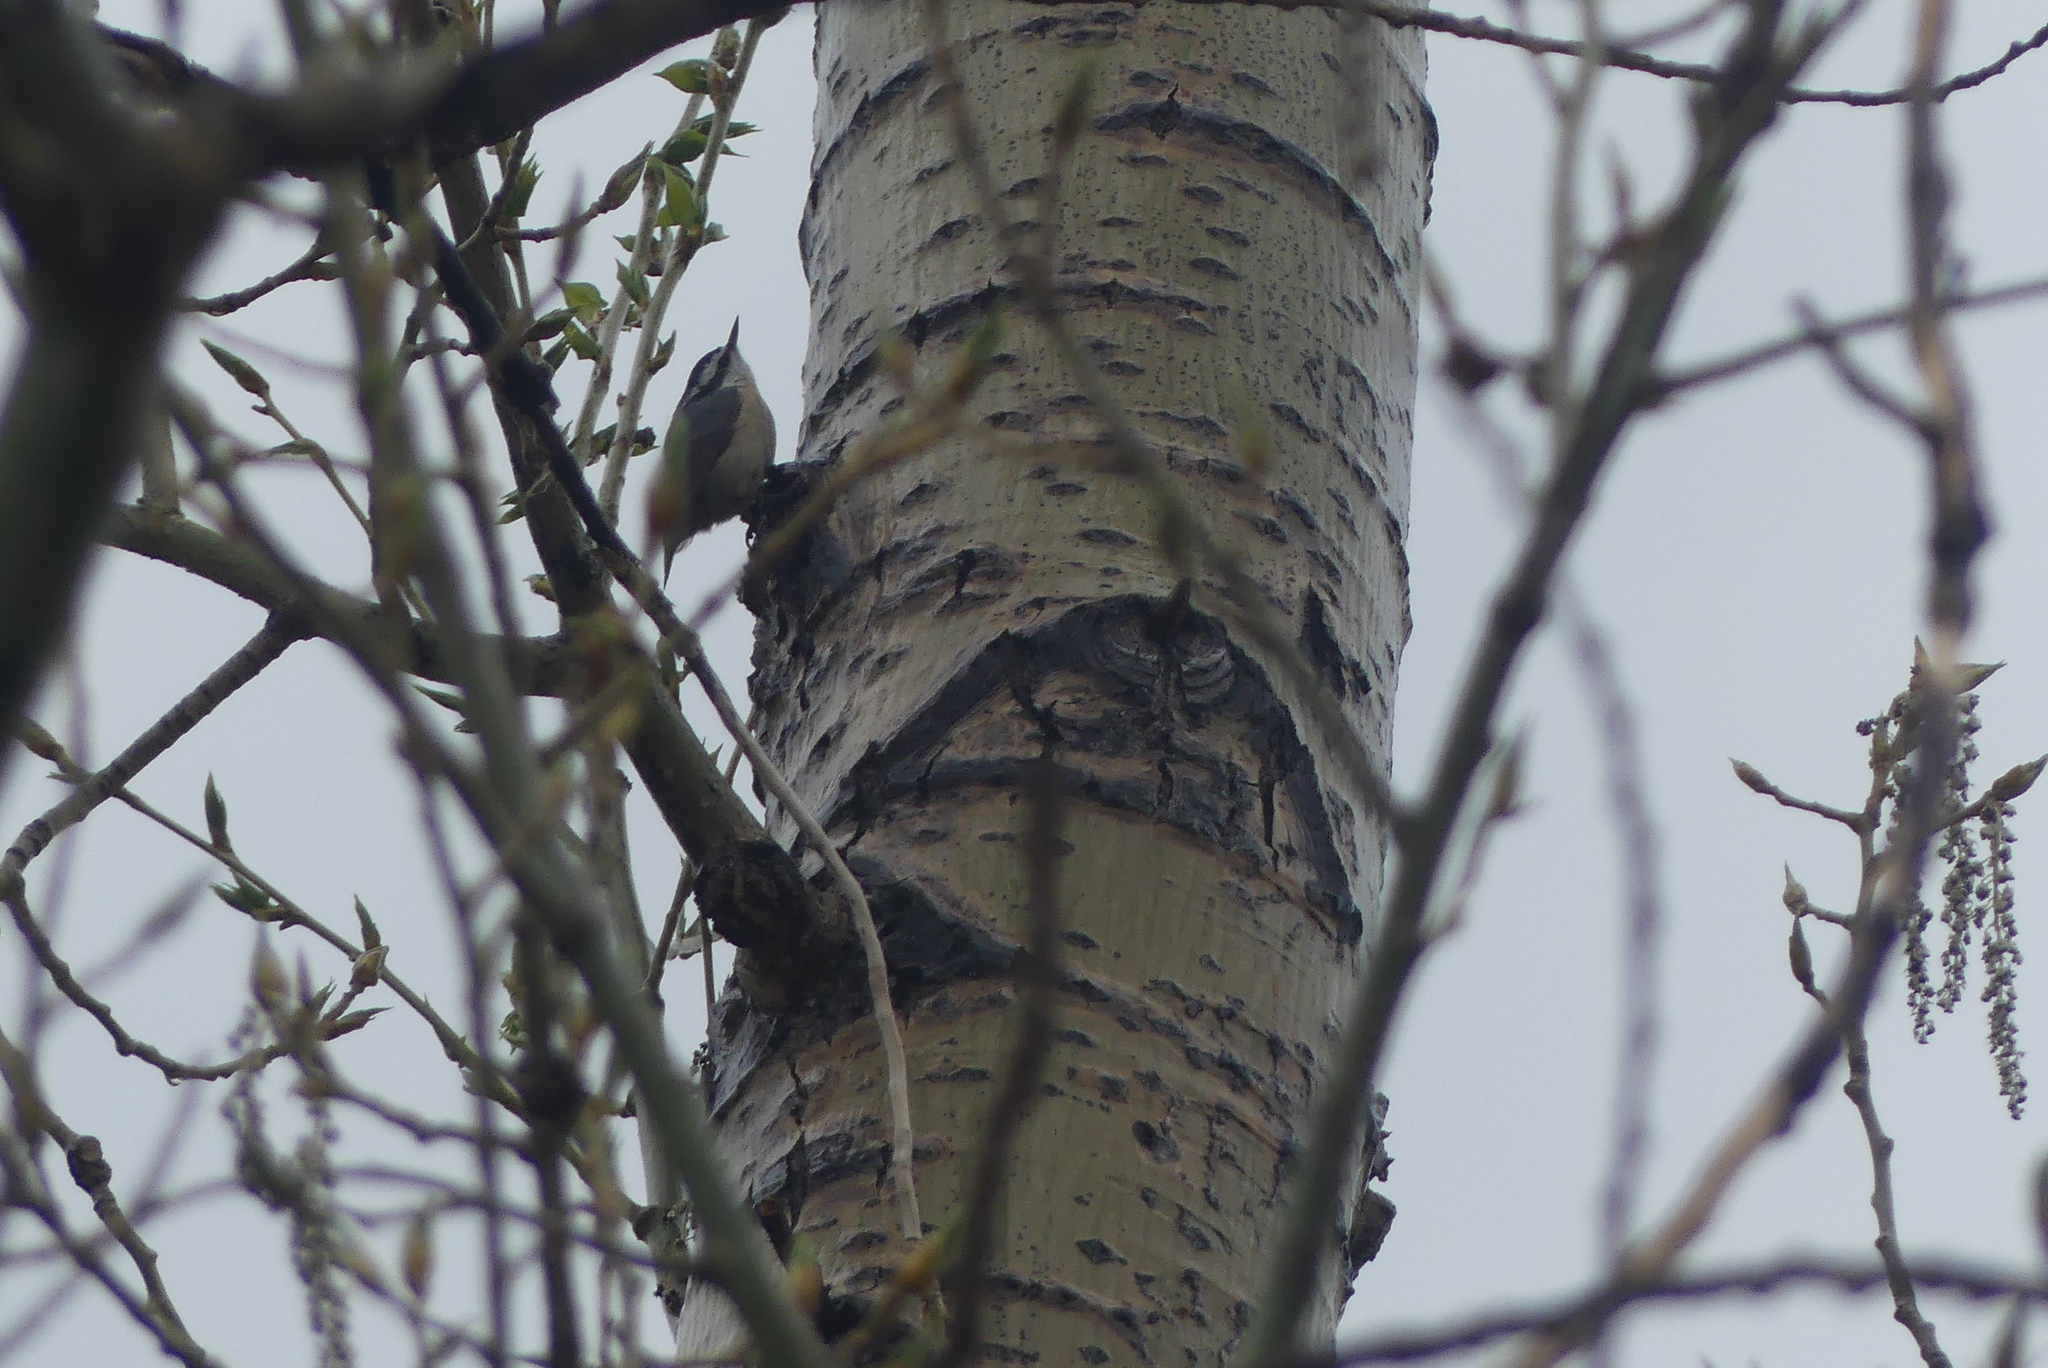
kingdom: Animalia
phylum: Chordata
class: Aves
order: Passeriformes
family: Sittidae
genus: Sitta
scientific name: Sitta canadensis
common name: Red-breasted nuthatch
